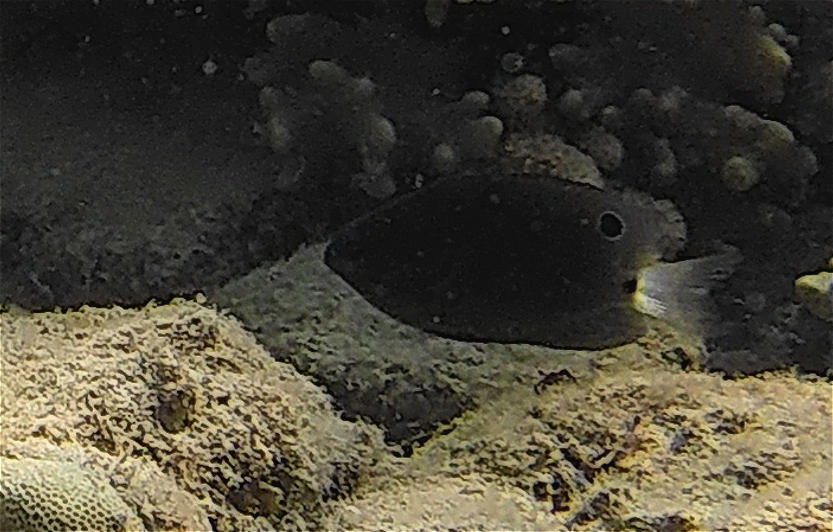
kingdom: Animalia
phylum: Chordata
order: Perciformes
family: Pomacentridae
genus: Pomacentrus
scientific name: Pomacentrus trichrourus
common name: Paletail damsel
